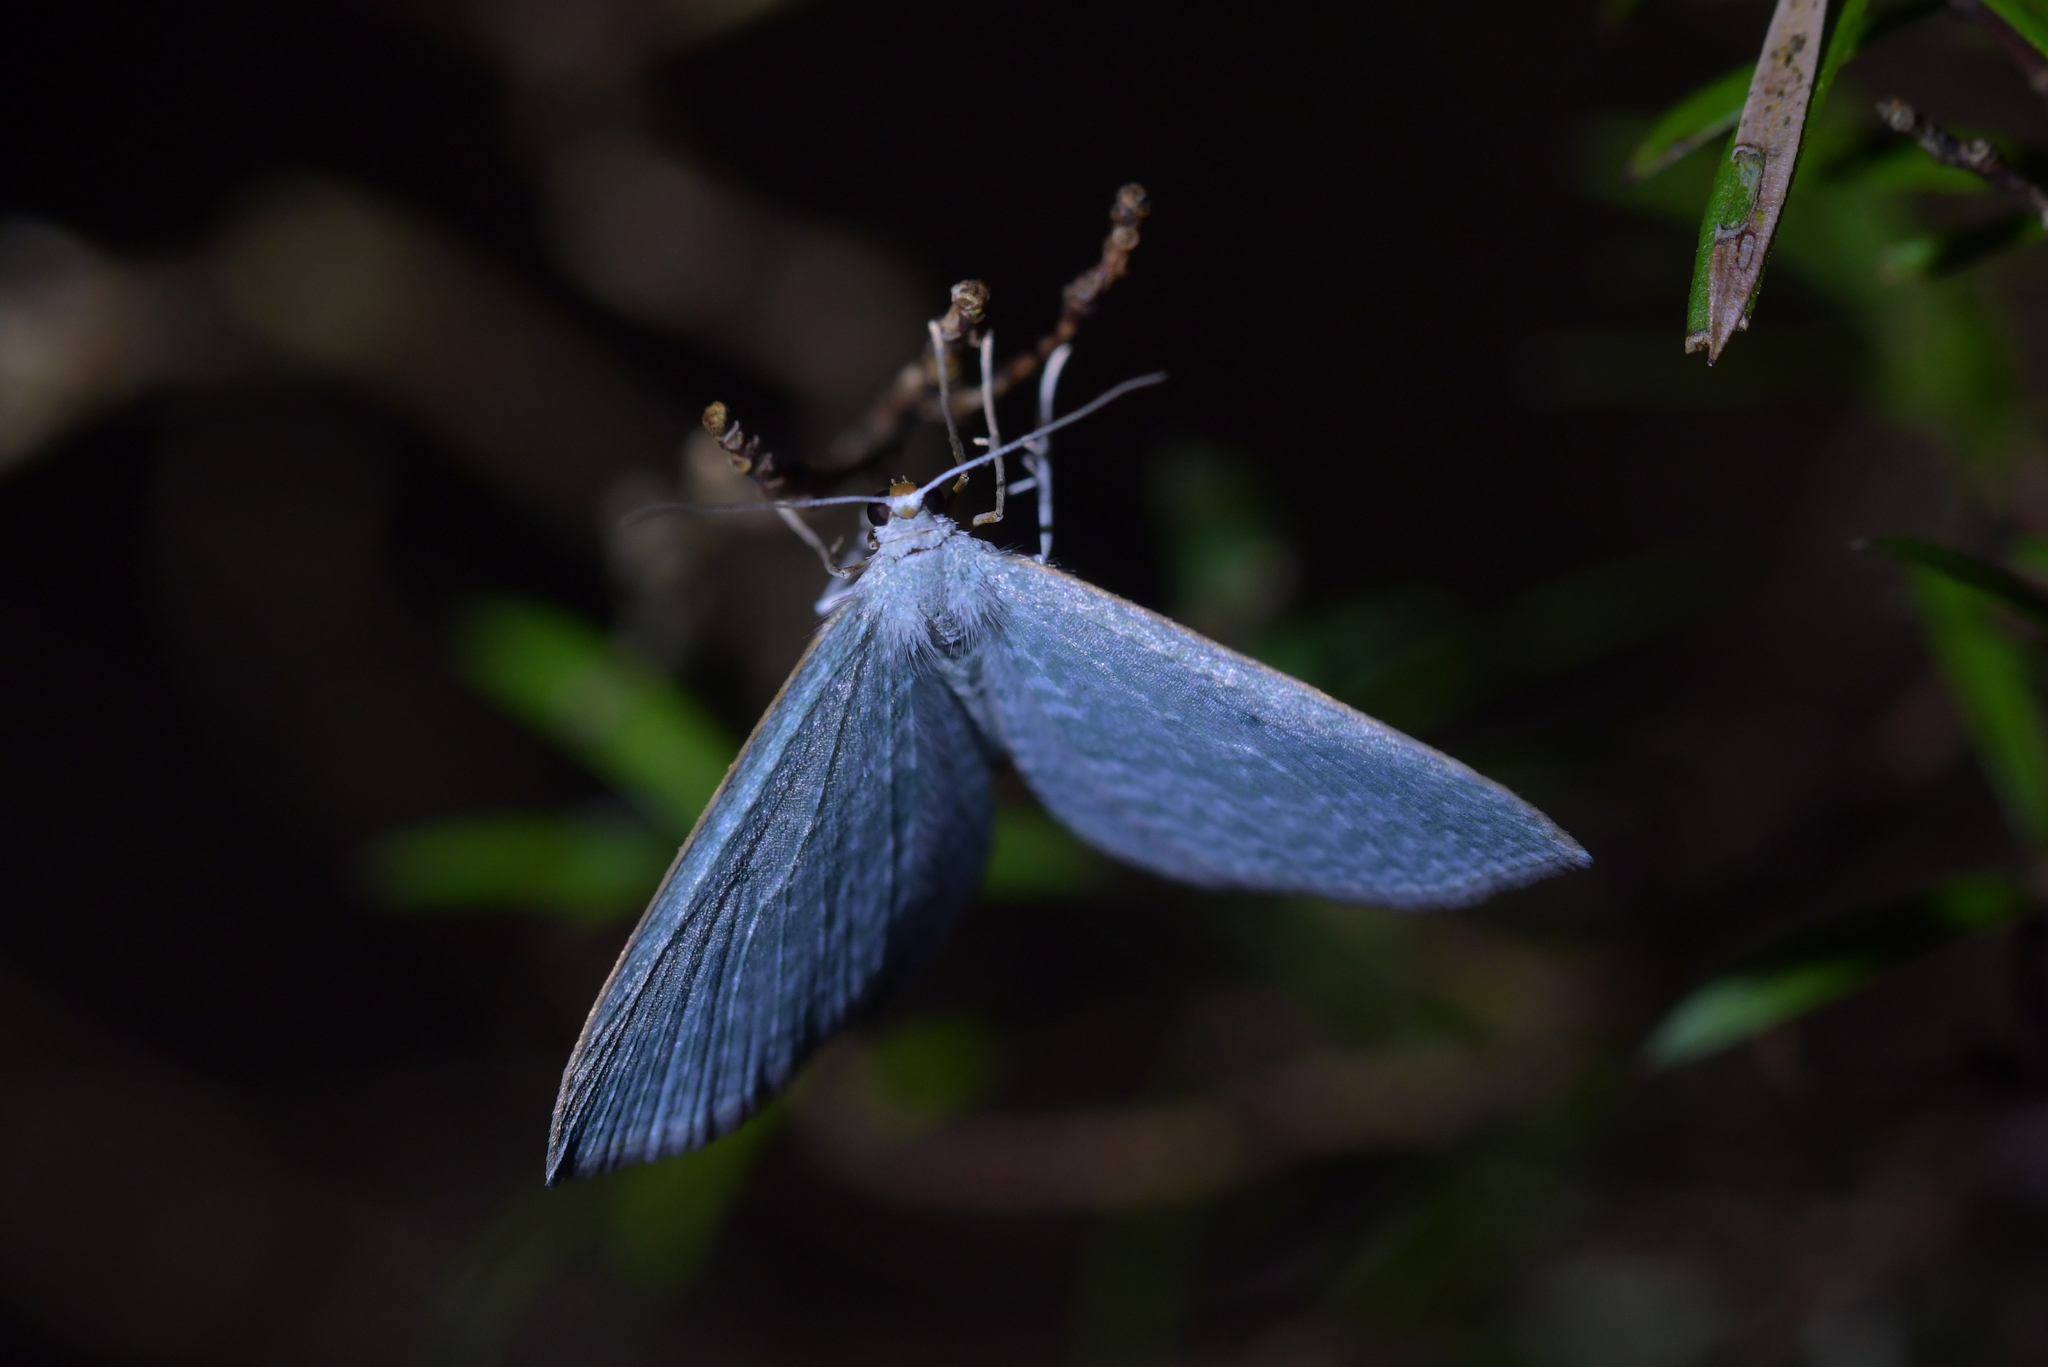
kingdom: Animalia
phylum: Arthropoda
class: Insecta
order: Lepidoptera
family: Geometridae
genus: Poecilasthena
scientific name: Poecilasthena pulchraria
